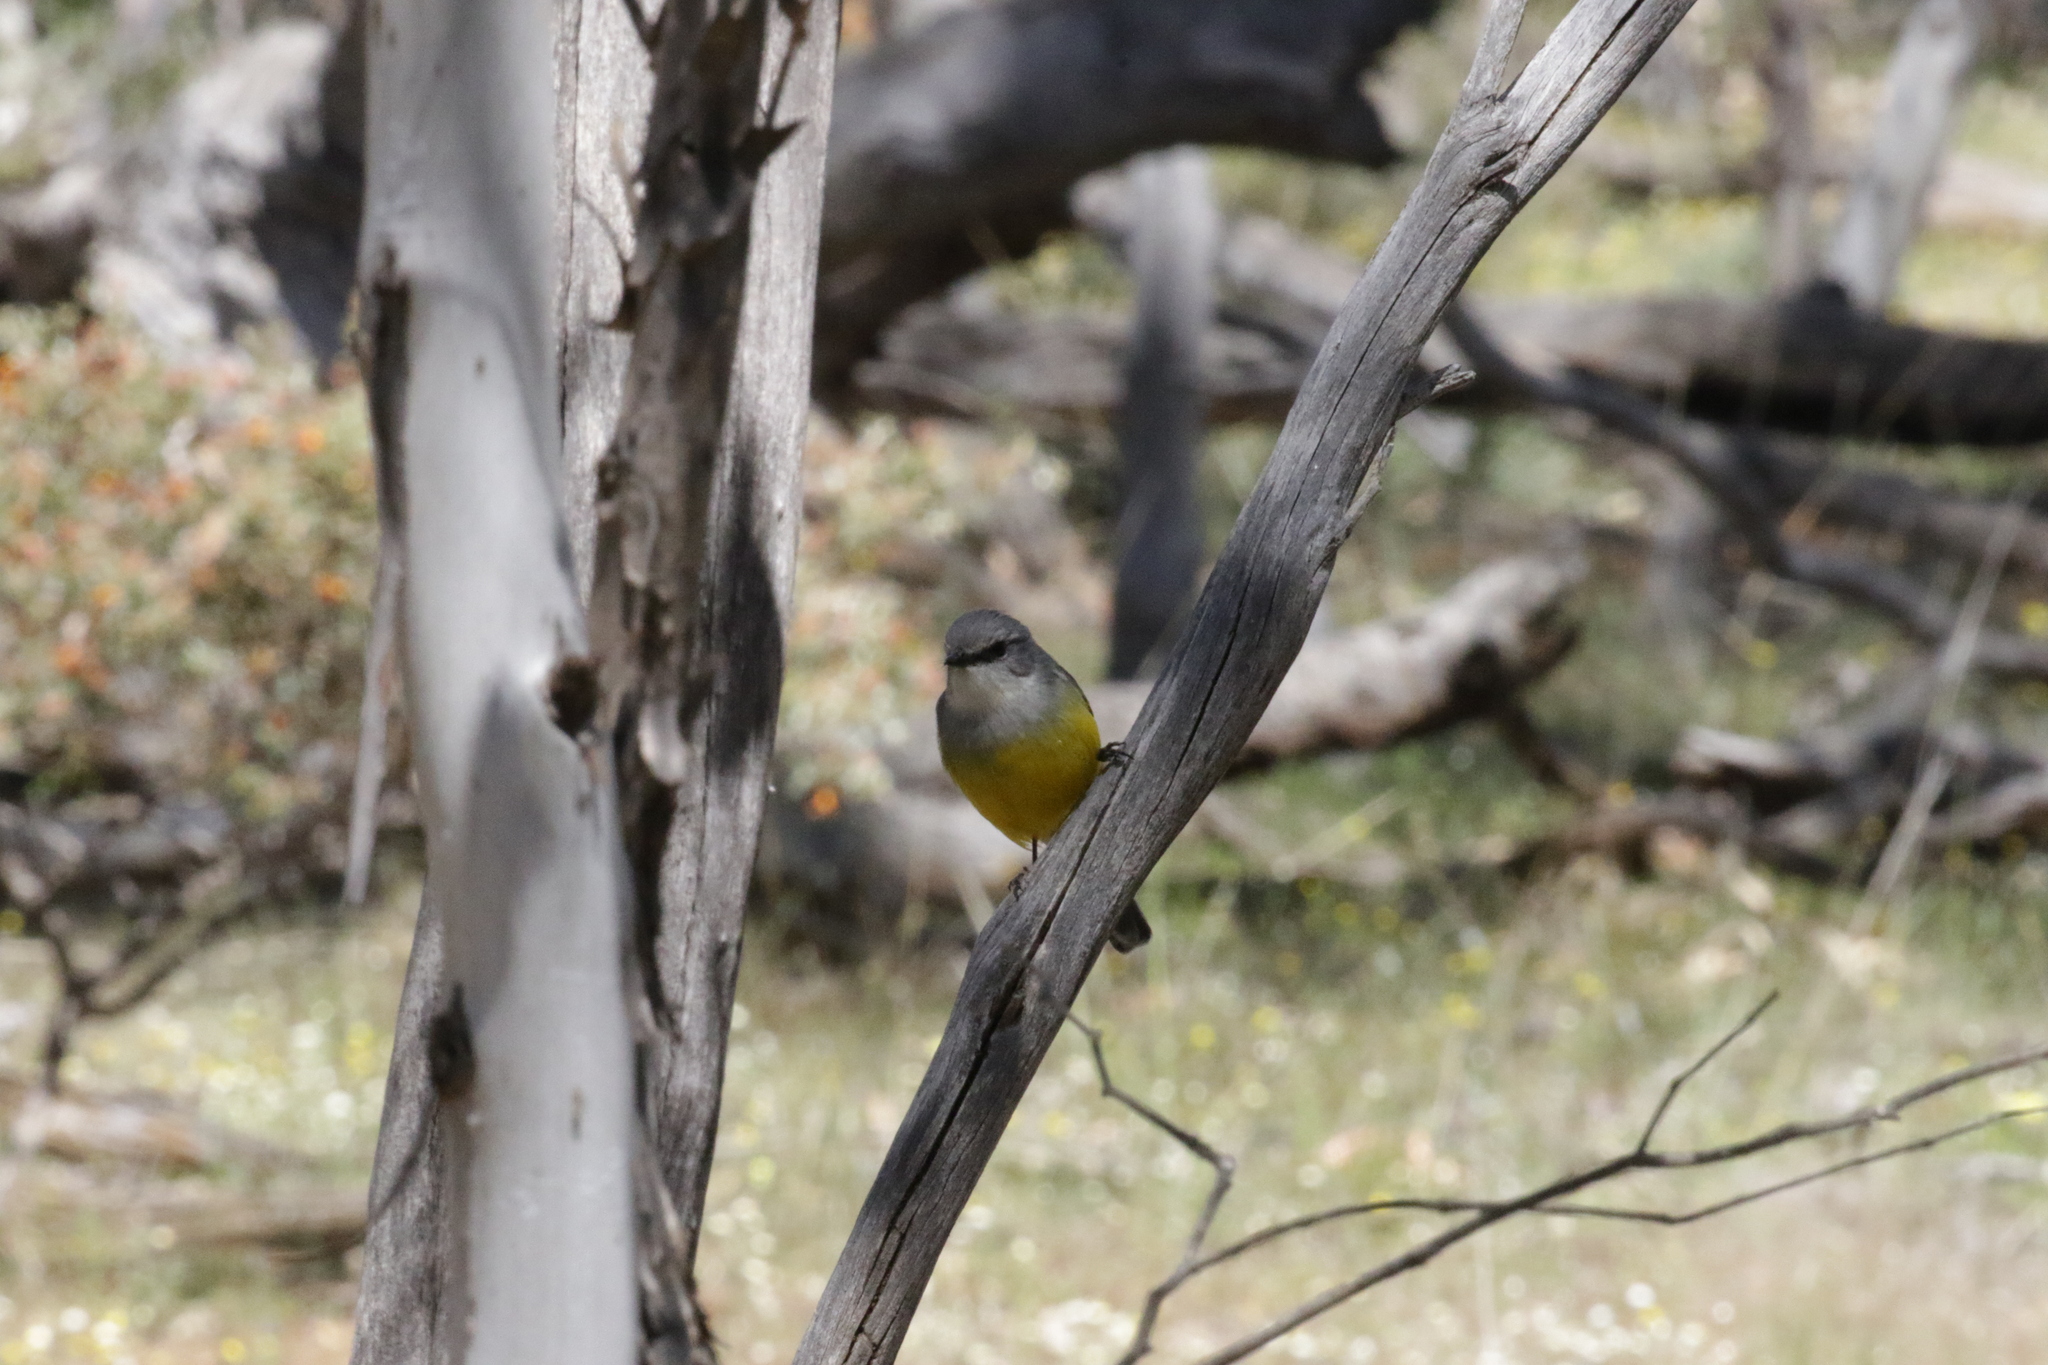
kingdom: Animalia
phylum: Chordata
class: Aves
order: Passeriformes
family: Petroicidae
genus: Eopsaltria
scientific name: Eopsaltria griseogularis
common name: Western yellow robin
